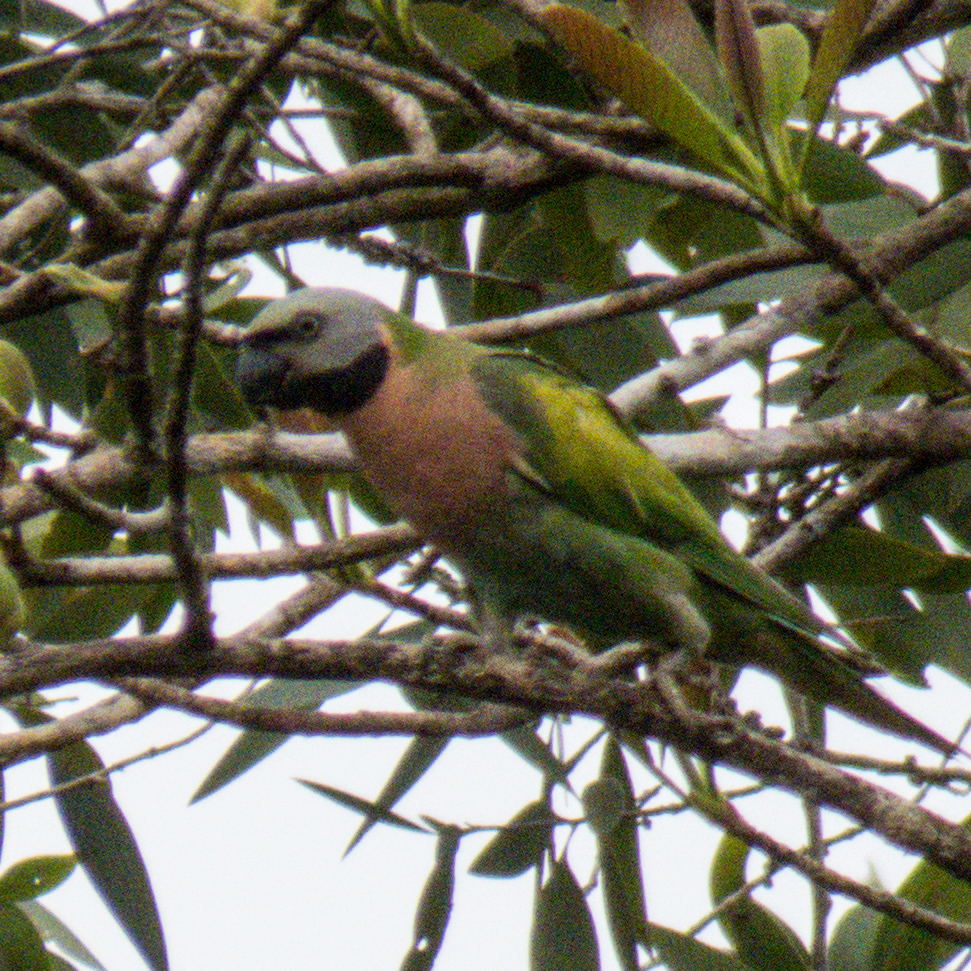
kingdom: Animalia
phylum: Chordata
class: Aves
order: Psittaciformes
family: Psittacidae
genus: Psittacula
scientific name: Psittacula alexandri
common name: Red-breasted parakeet
